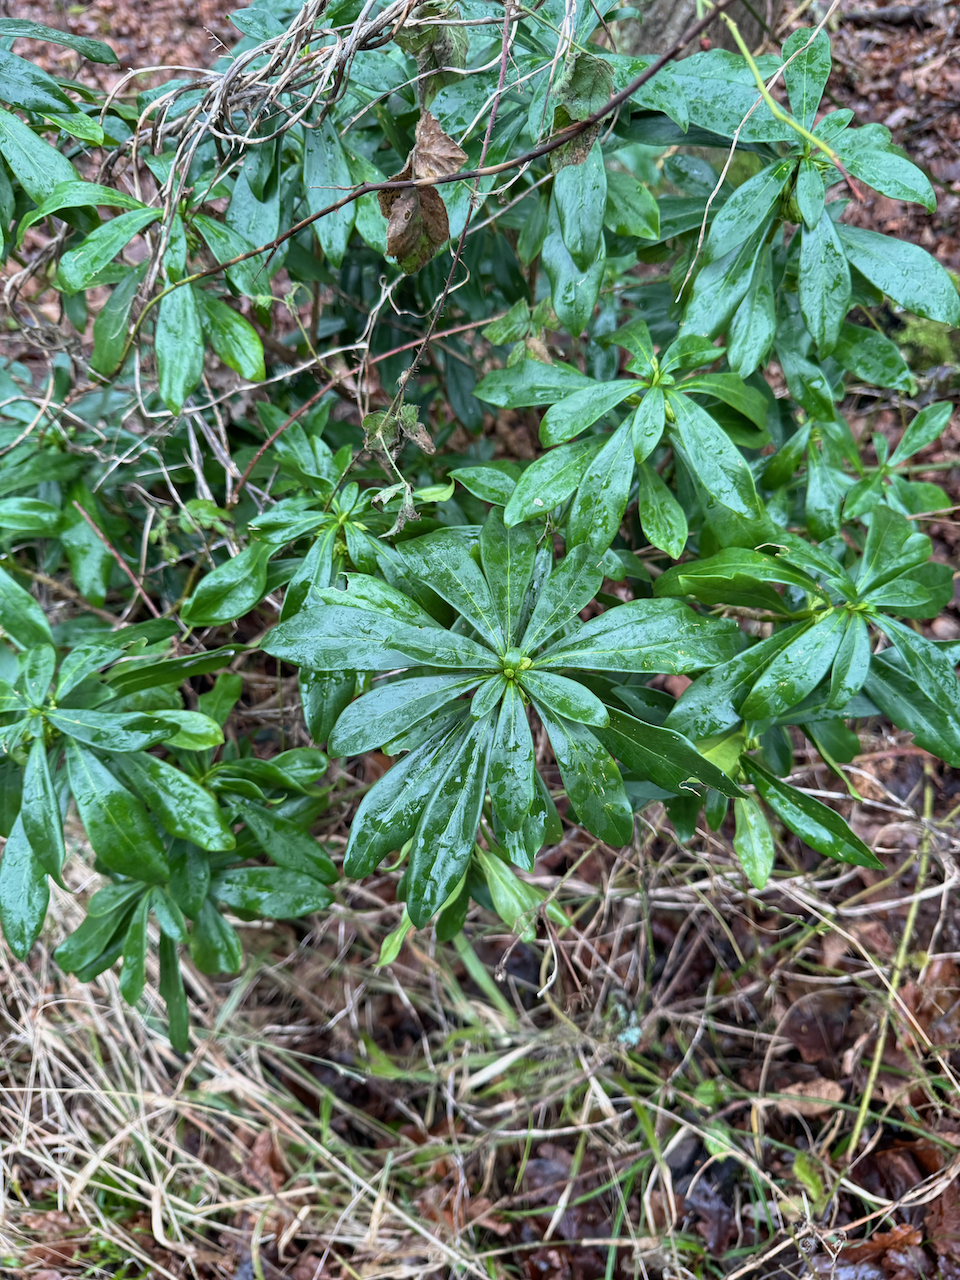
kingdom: Plantae
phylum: Tracheophyta
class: Magnoliopsida
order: Malvales
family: Thymelaeaceae
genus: Daphne
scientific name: Daphne laureola
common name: Spurge-laurel
